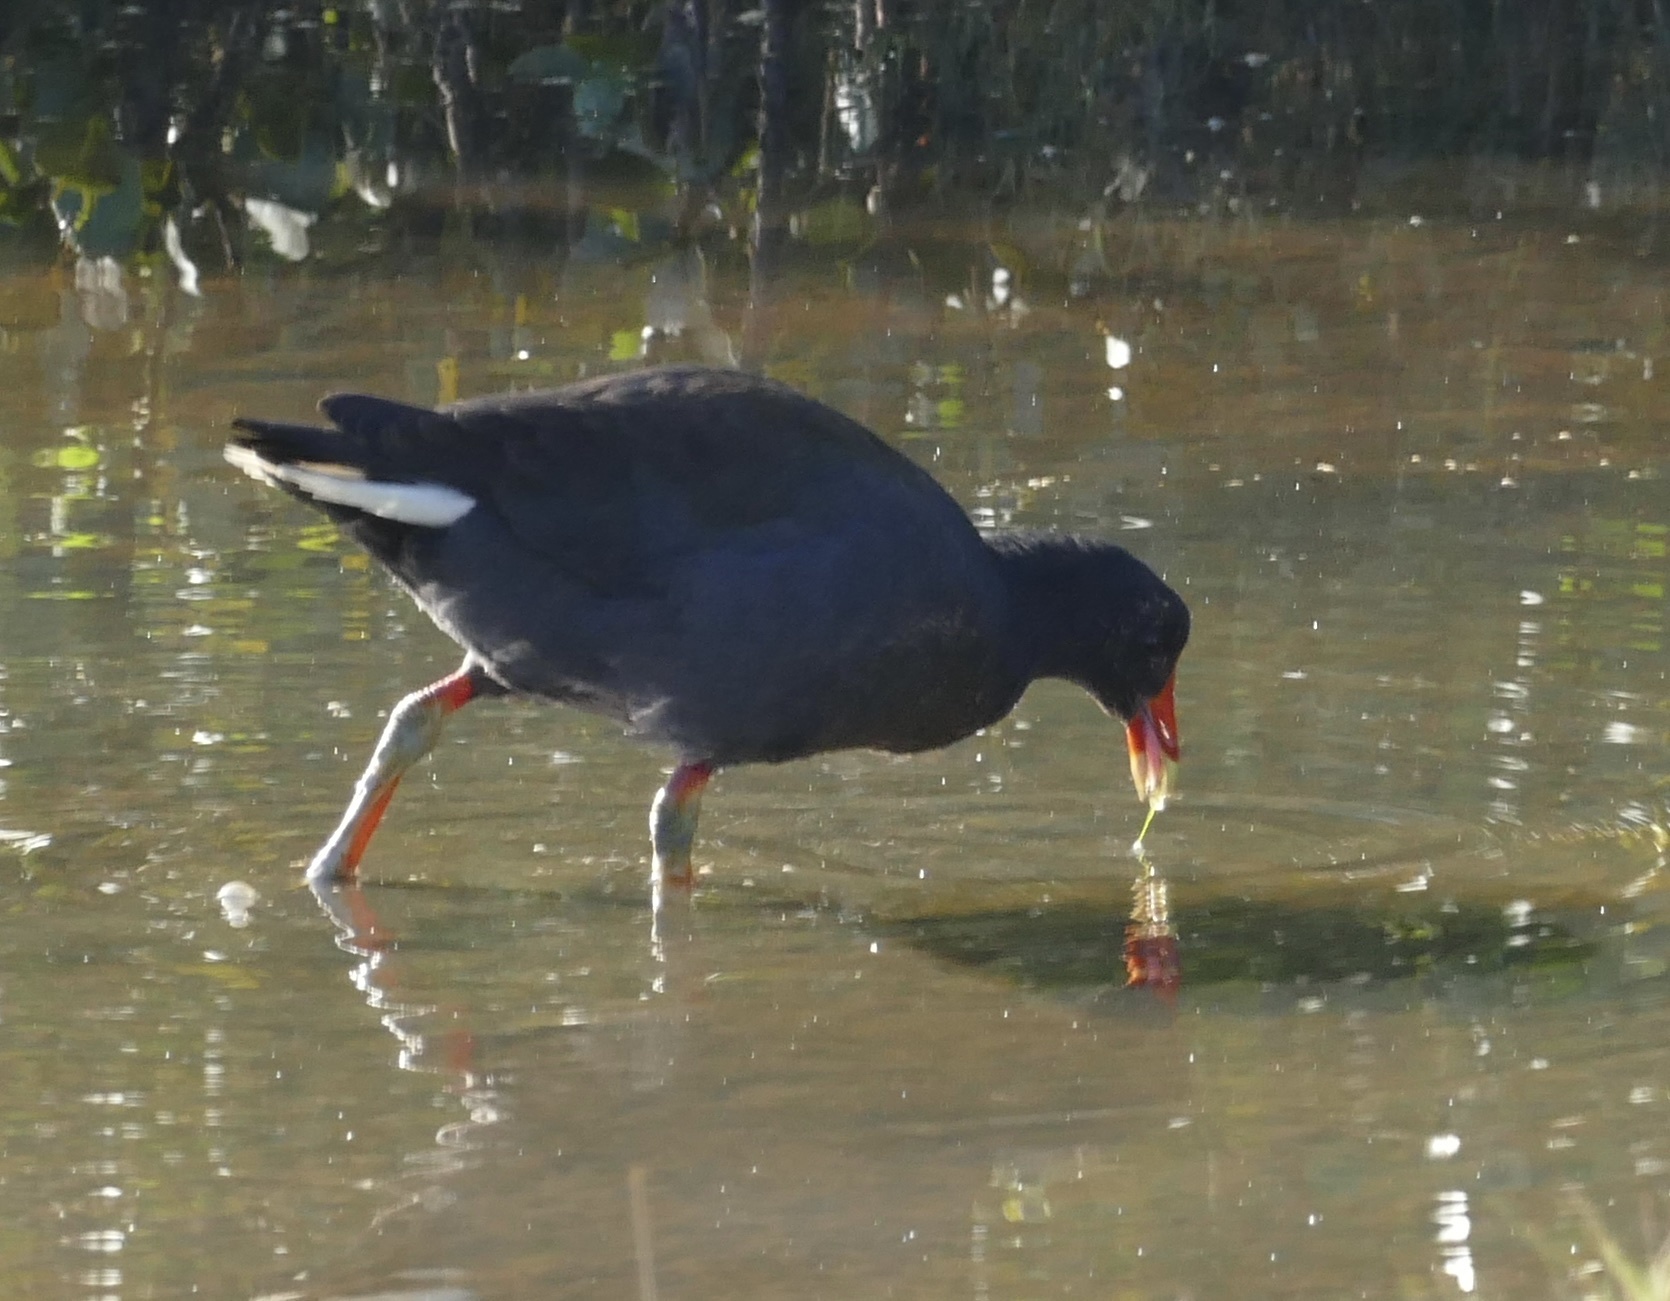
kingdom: Animalia
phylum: Chordata
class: Aves
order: Gruiformes
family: Rallidae
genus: Gallinula
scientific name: Gallinula tenebrosa
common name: Dusky moorhen
